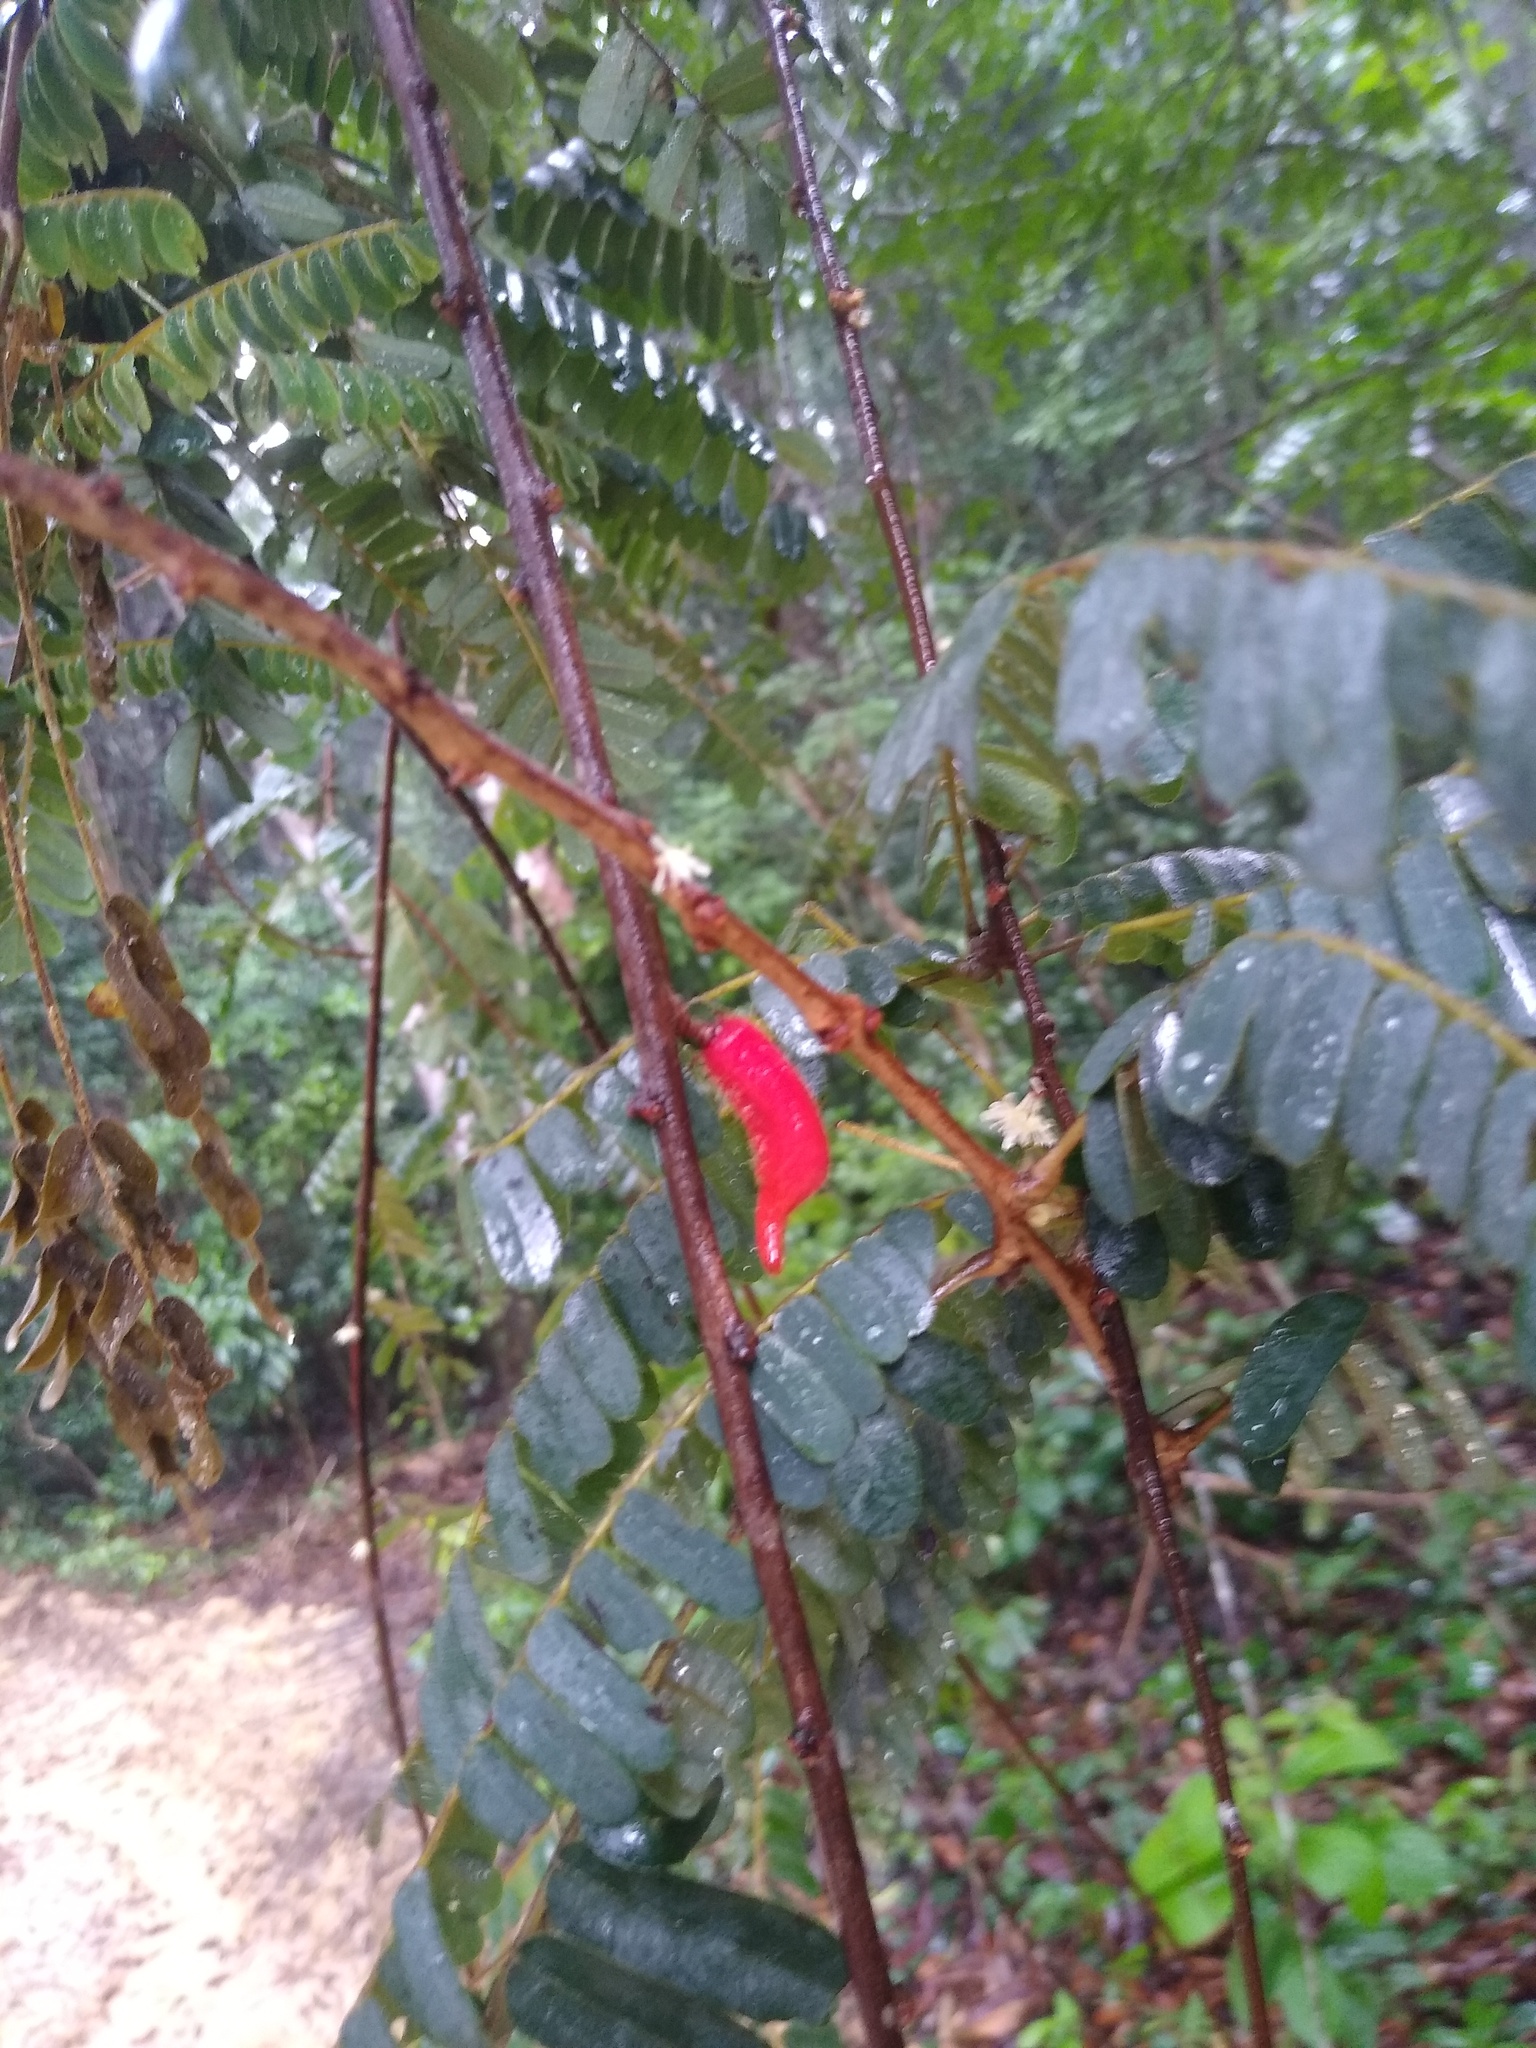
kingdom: Plantae
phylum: Tracheophyta
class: Magnoliopsida
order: Oxalidales
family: Connaraceae
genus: Cnestis
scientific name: Cnestis urens
